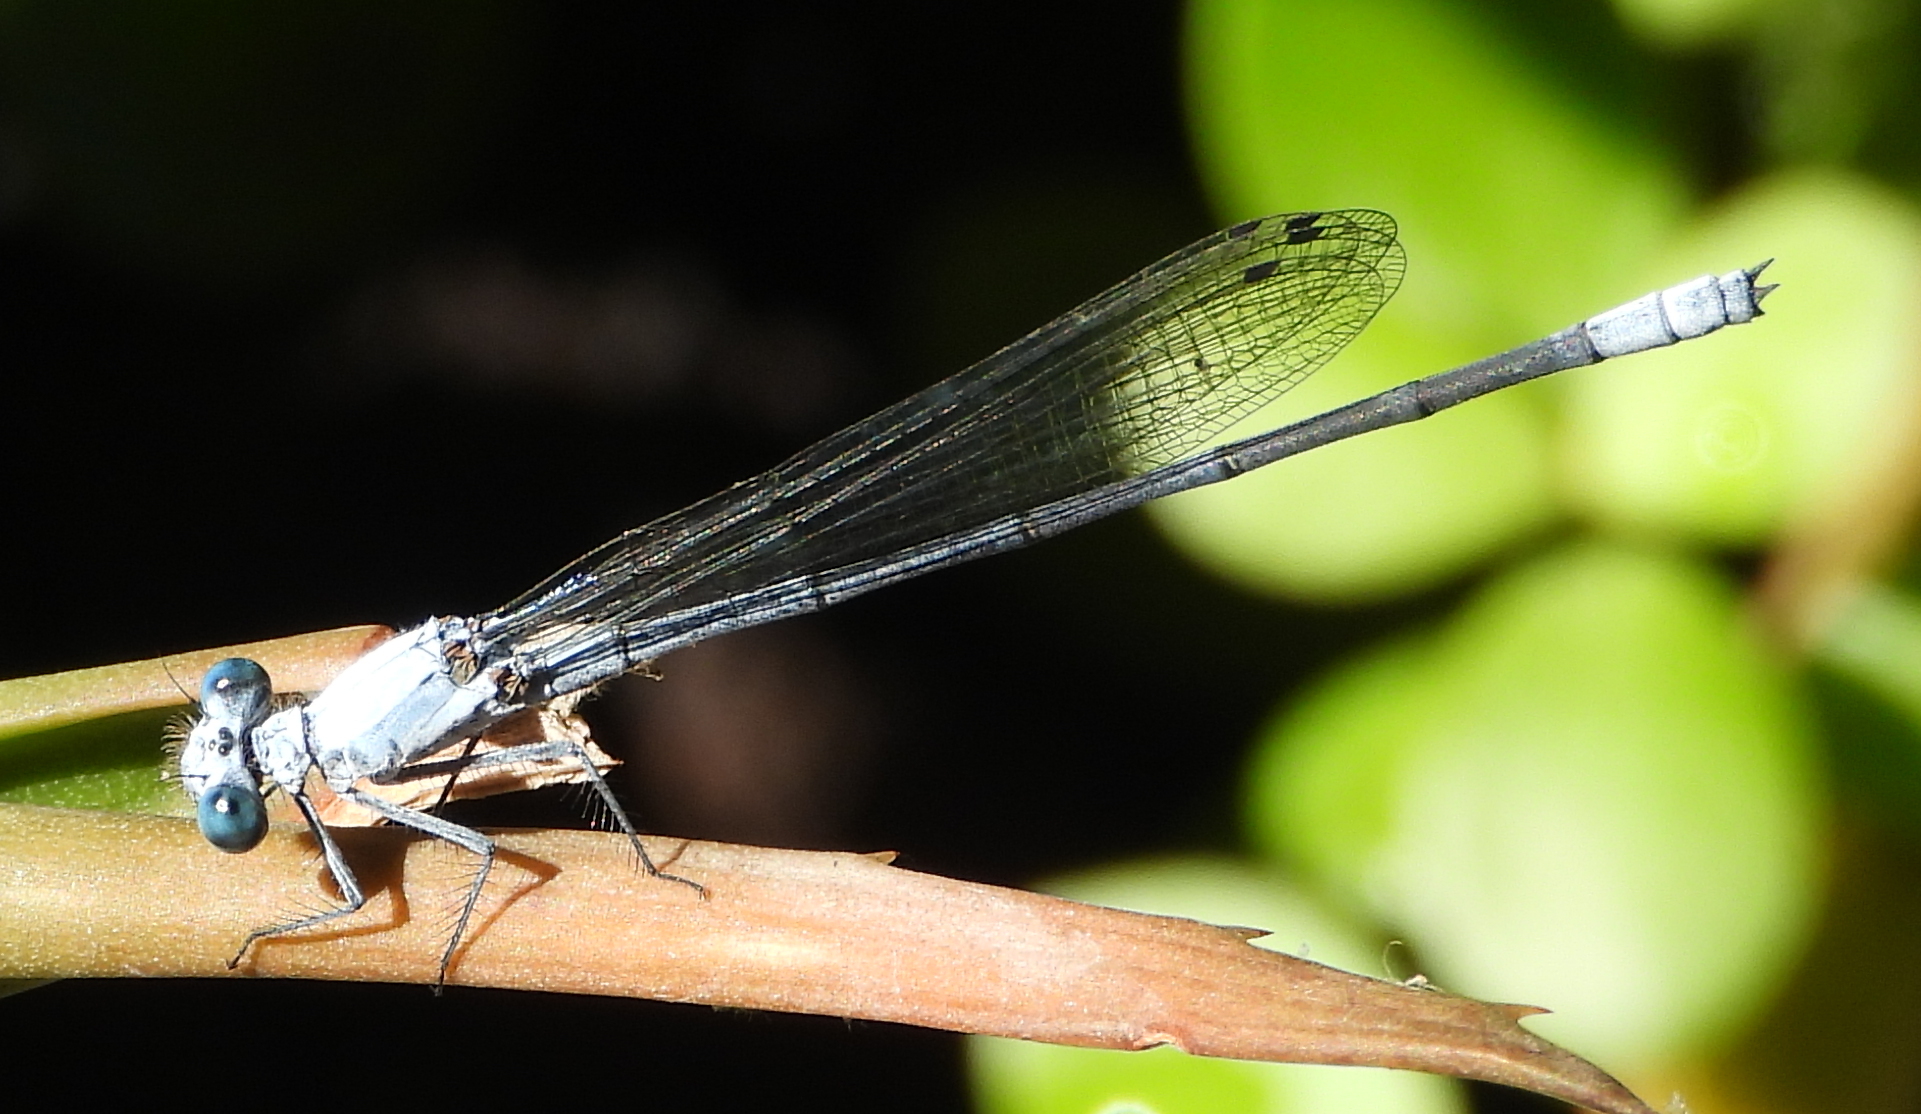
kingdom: Animalia
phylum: Arthropoda
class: Insecta
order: Odonata
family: Platycnemididae
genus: Mesocnemis
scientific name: Mesocnemis singularis
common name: Common riverjack
